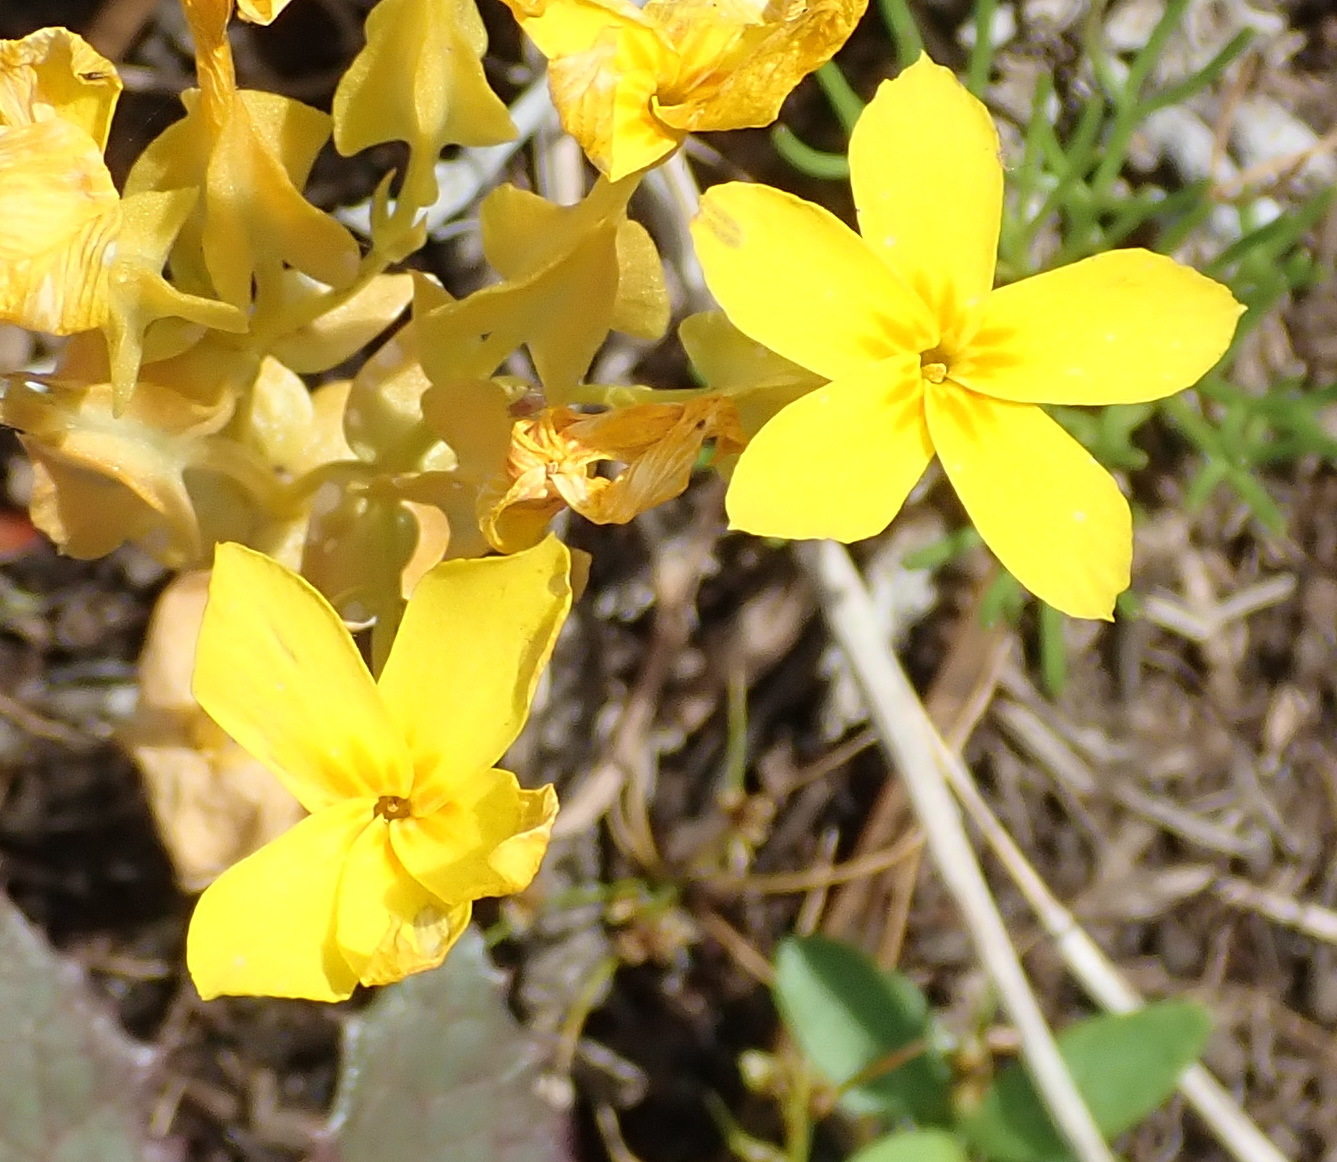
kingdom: Plantae
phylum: Tracheophyta
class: Magnoliopsida
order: Gentianales
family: Gentianaceae
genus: Sebaea
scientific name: Sebaea exacoides
